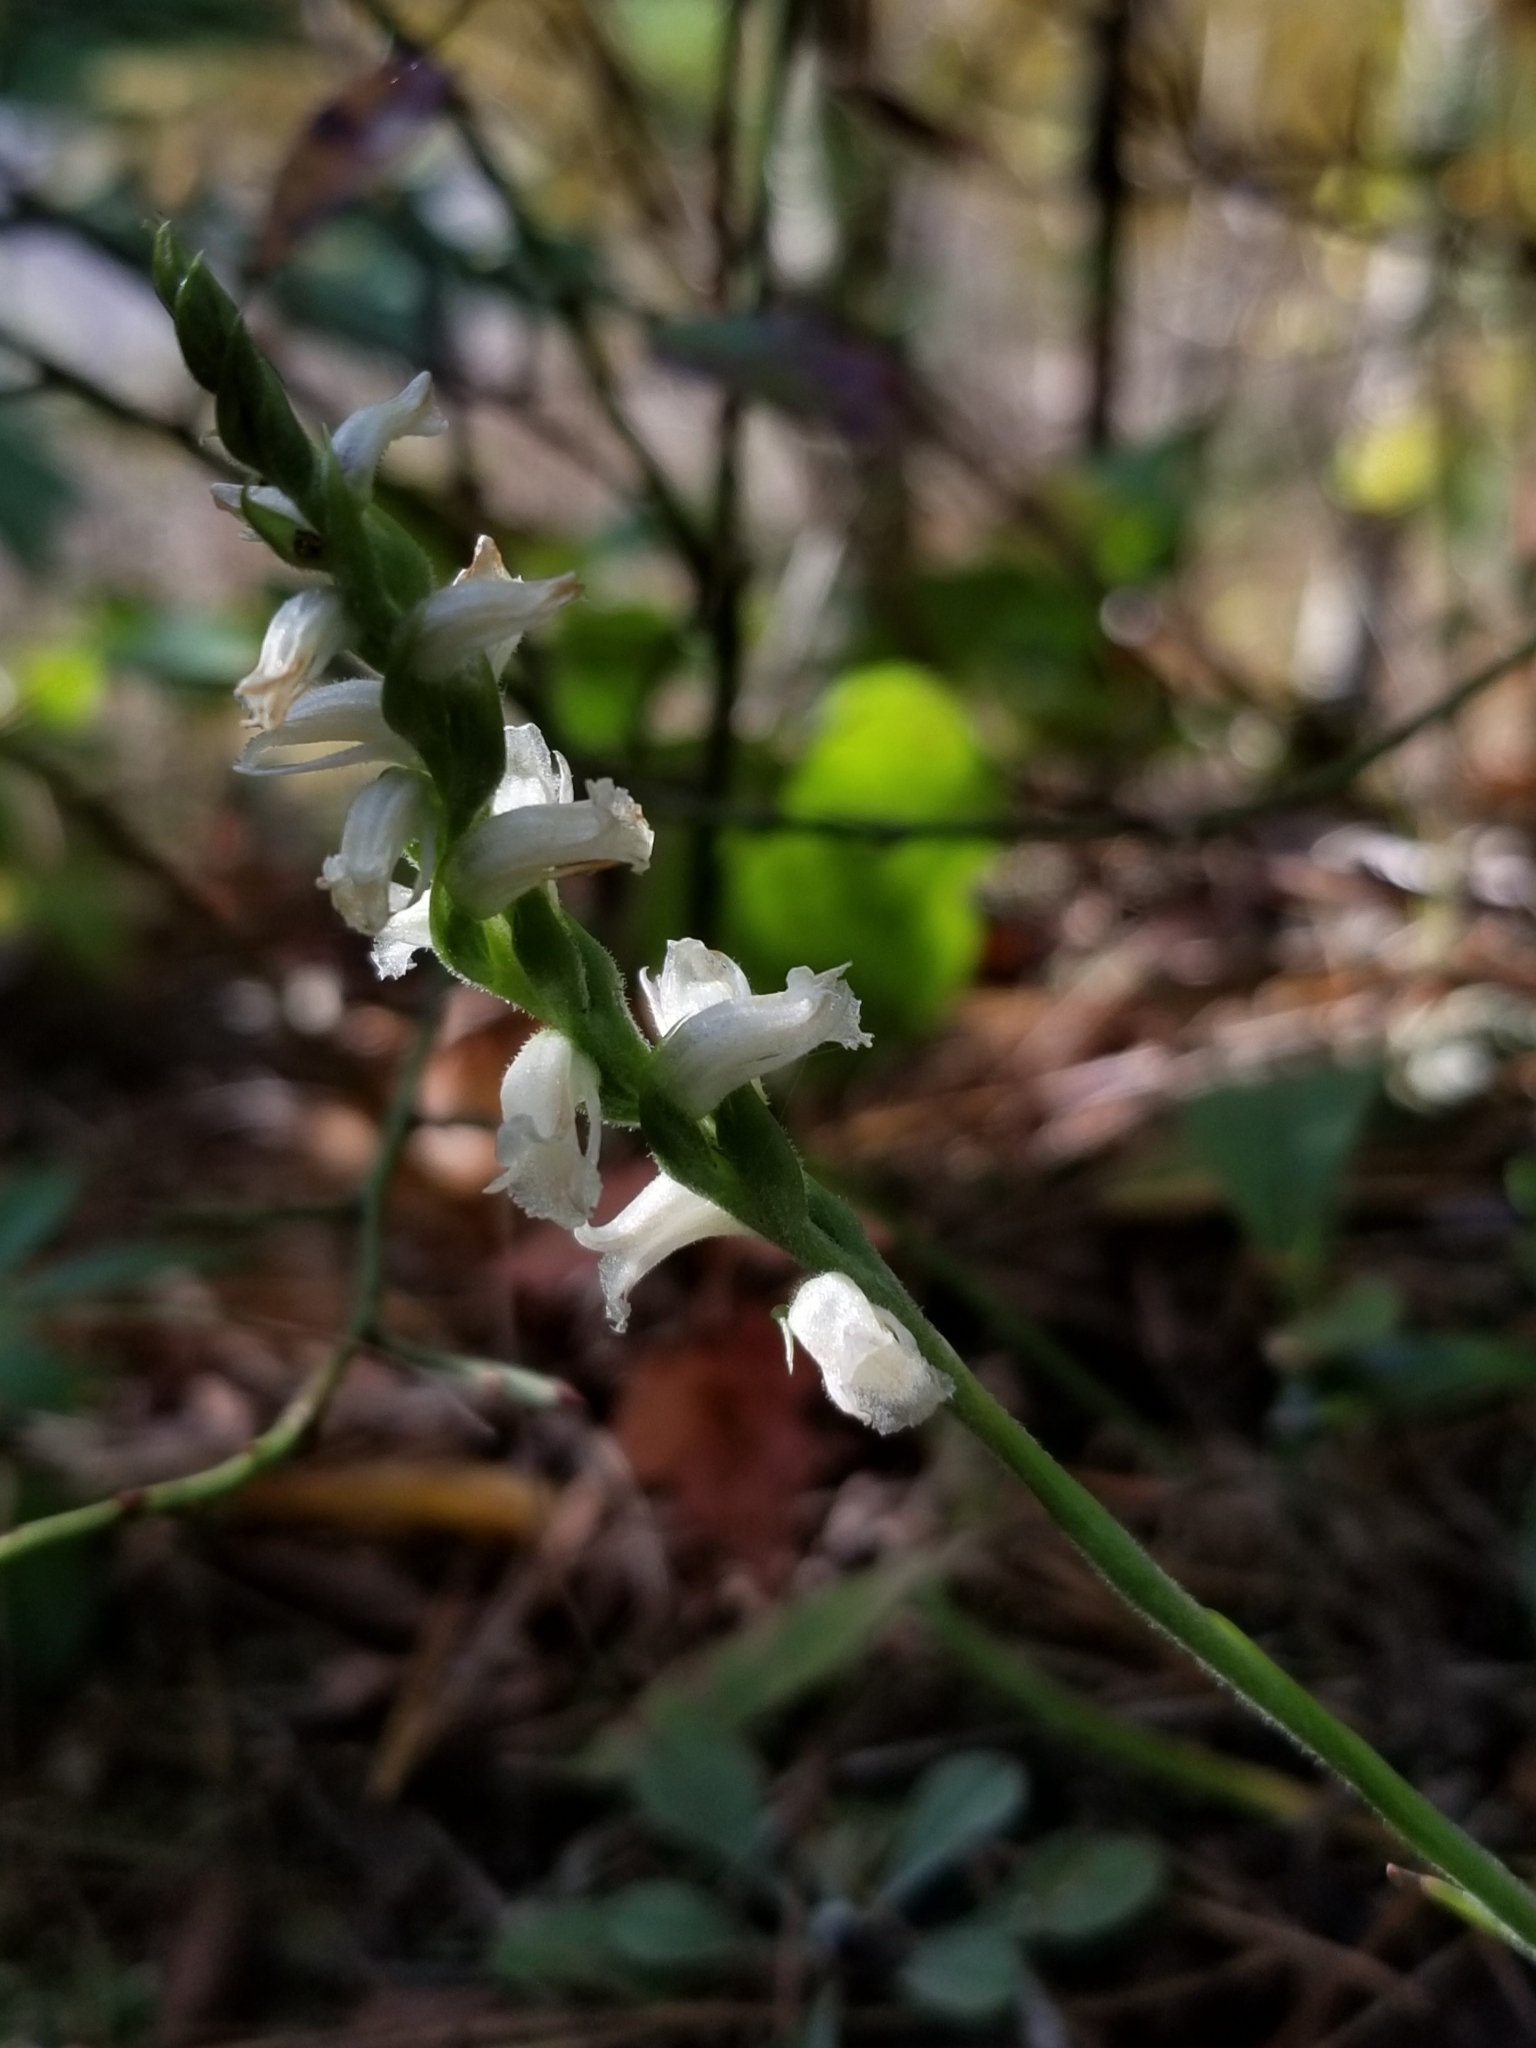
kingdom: Plantae
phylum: Tracheophyta
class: Liliopsida
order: Asparagales
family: Orchidaceae
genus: Spiranthes
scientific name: Spiranthes ochroleuca
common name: Yellow ladies'-tresses
